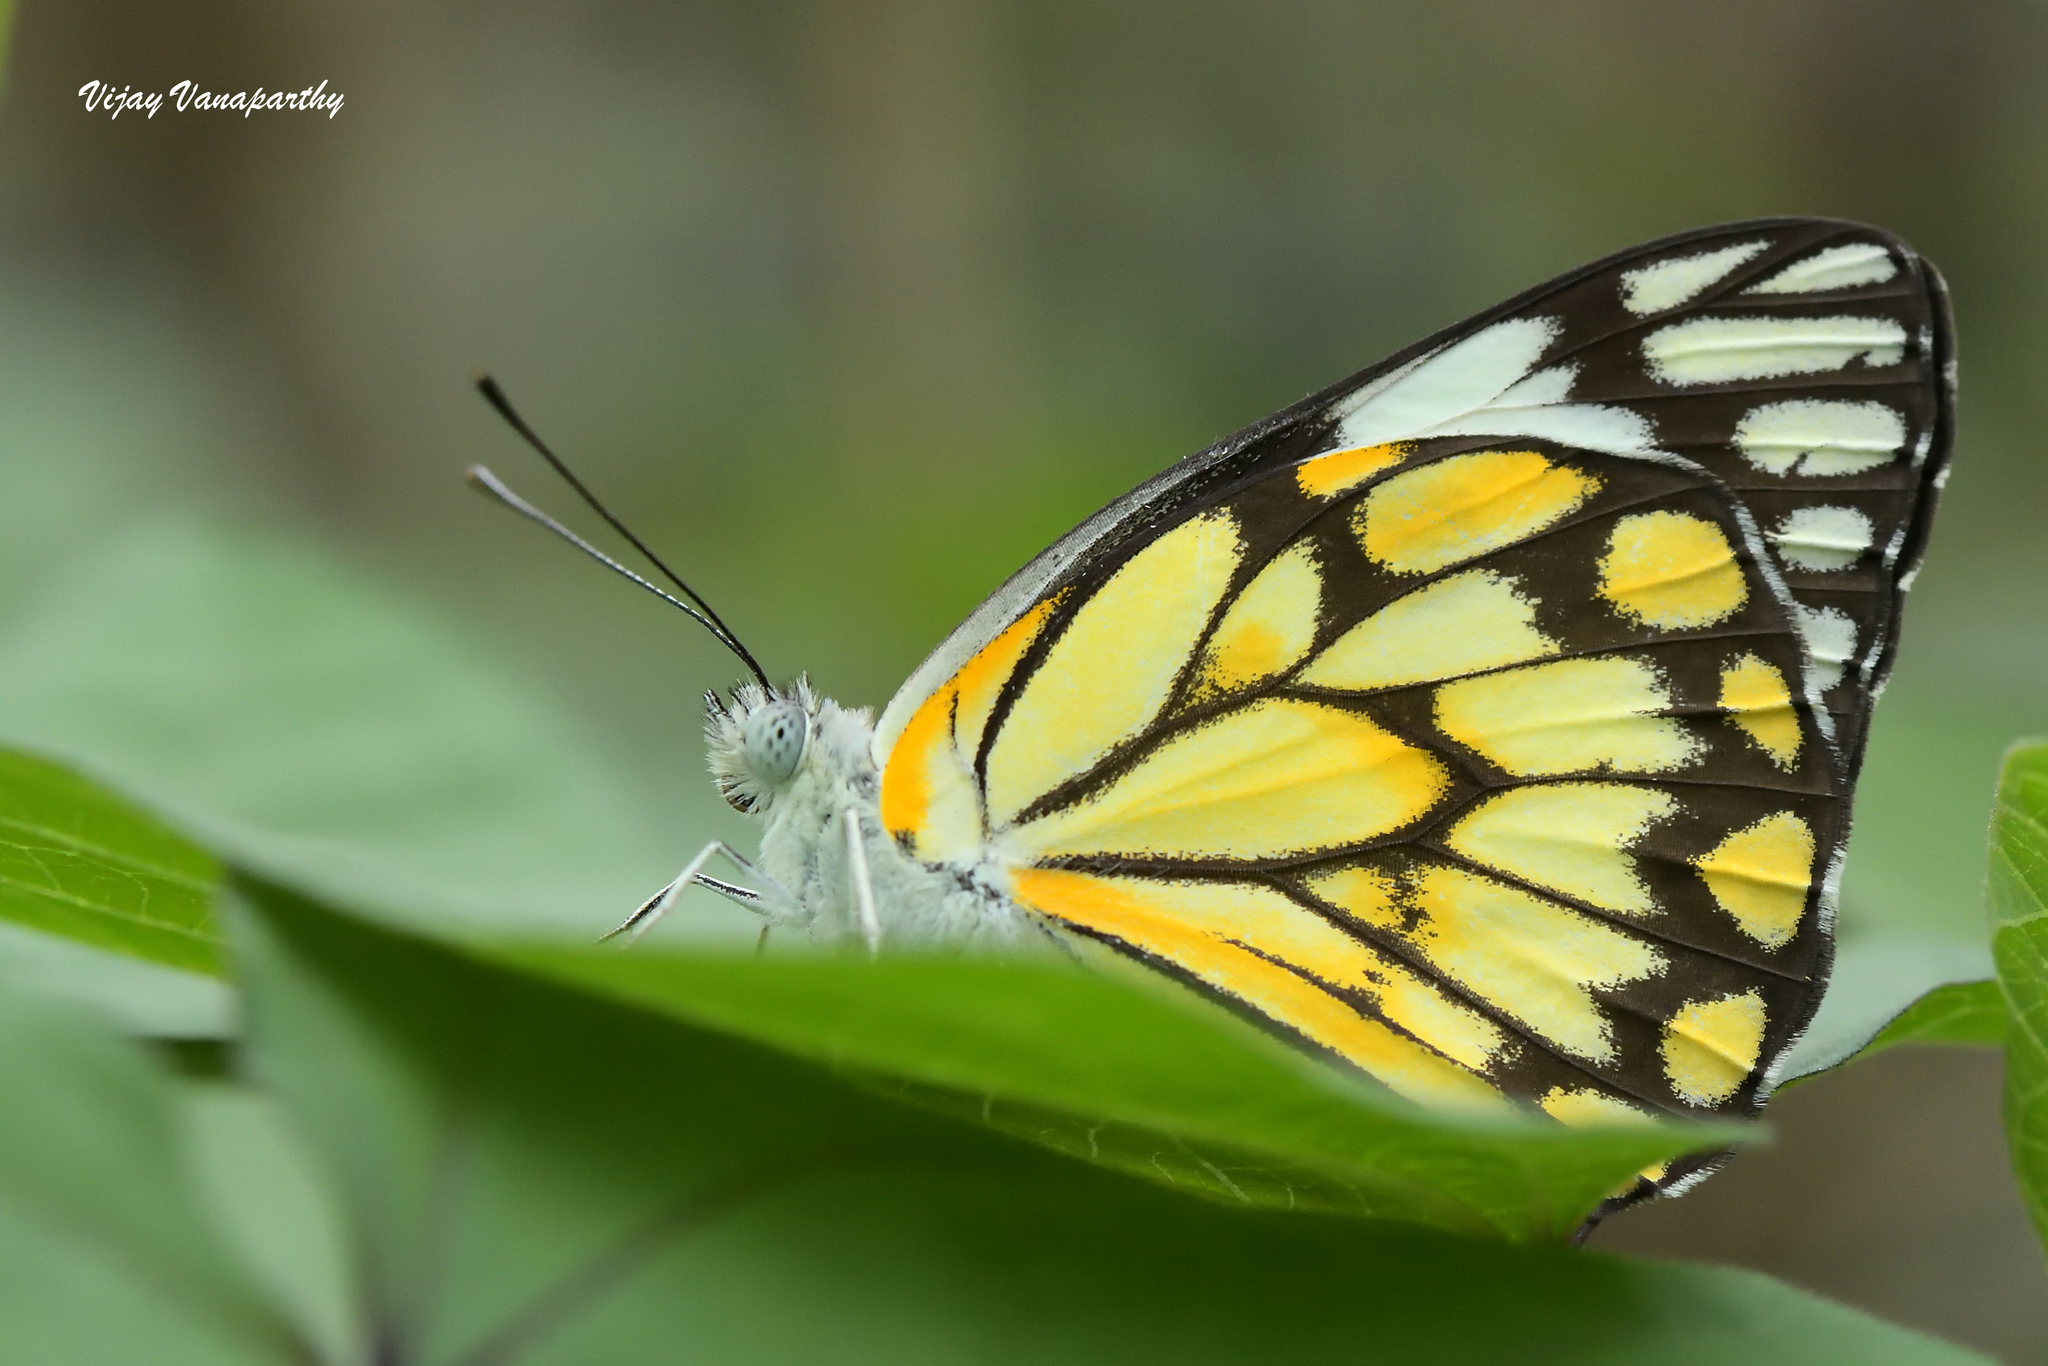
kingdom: Animalia
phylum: Arthropoda
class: Insecta
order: Lepidoptera
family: Pieridae
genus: Belenois
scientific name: Belenois aurota
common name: Brown-veined white
